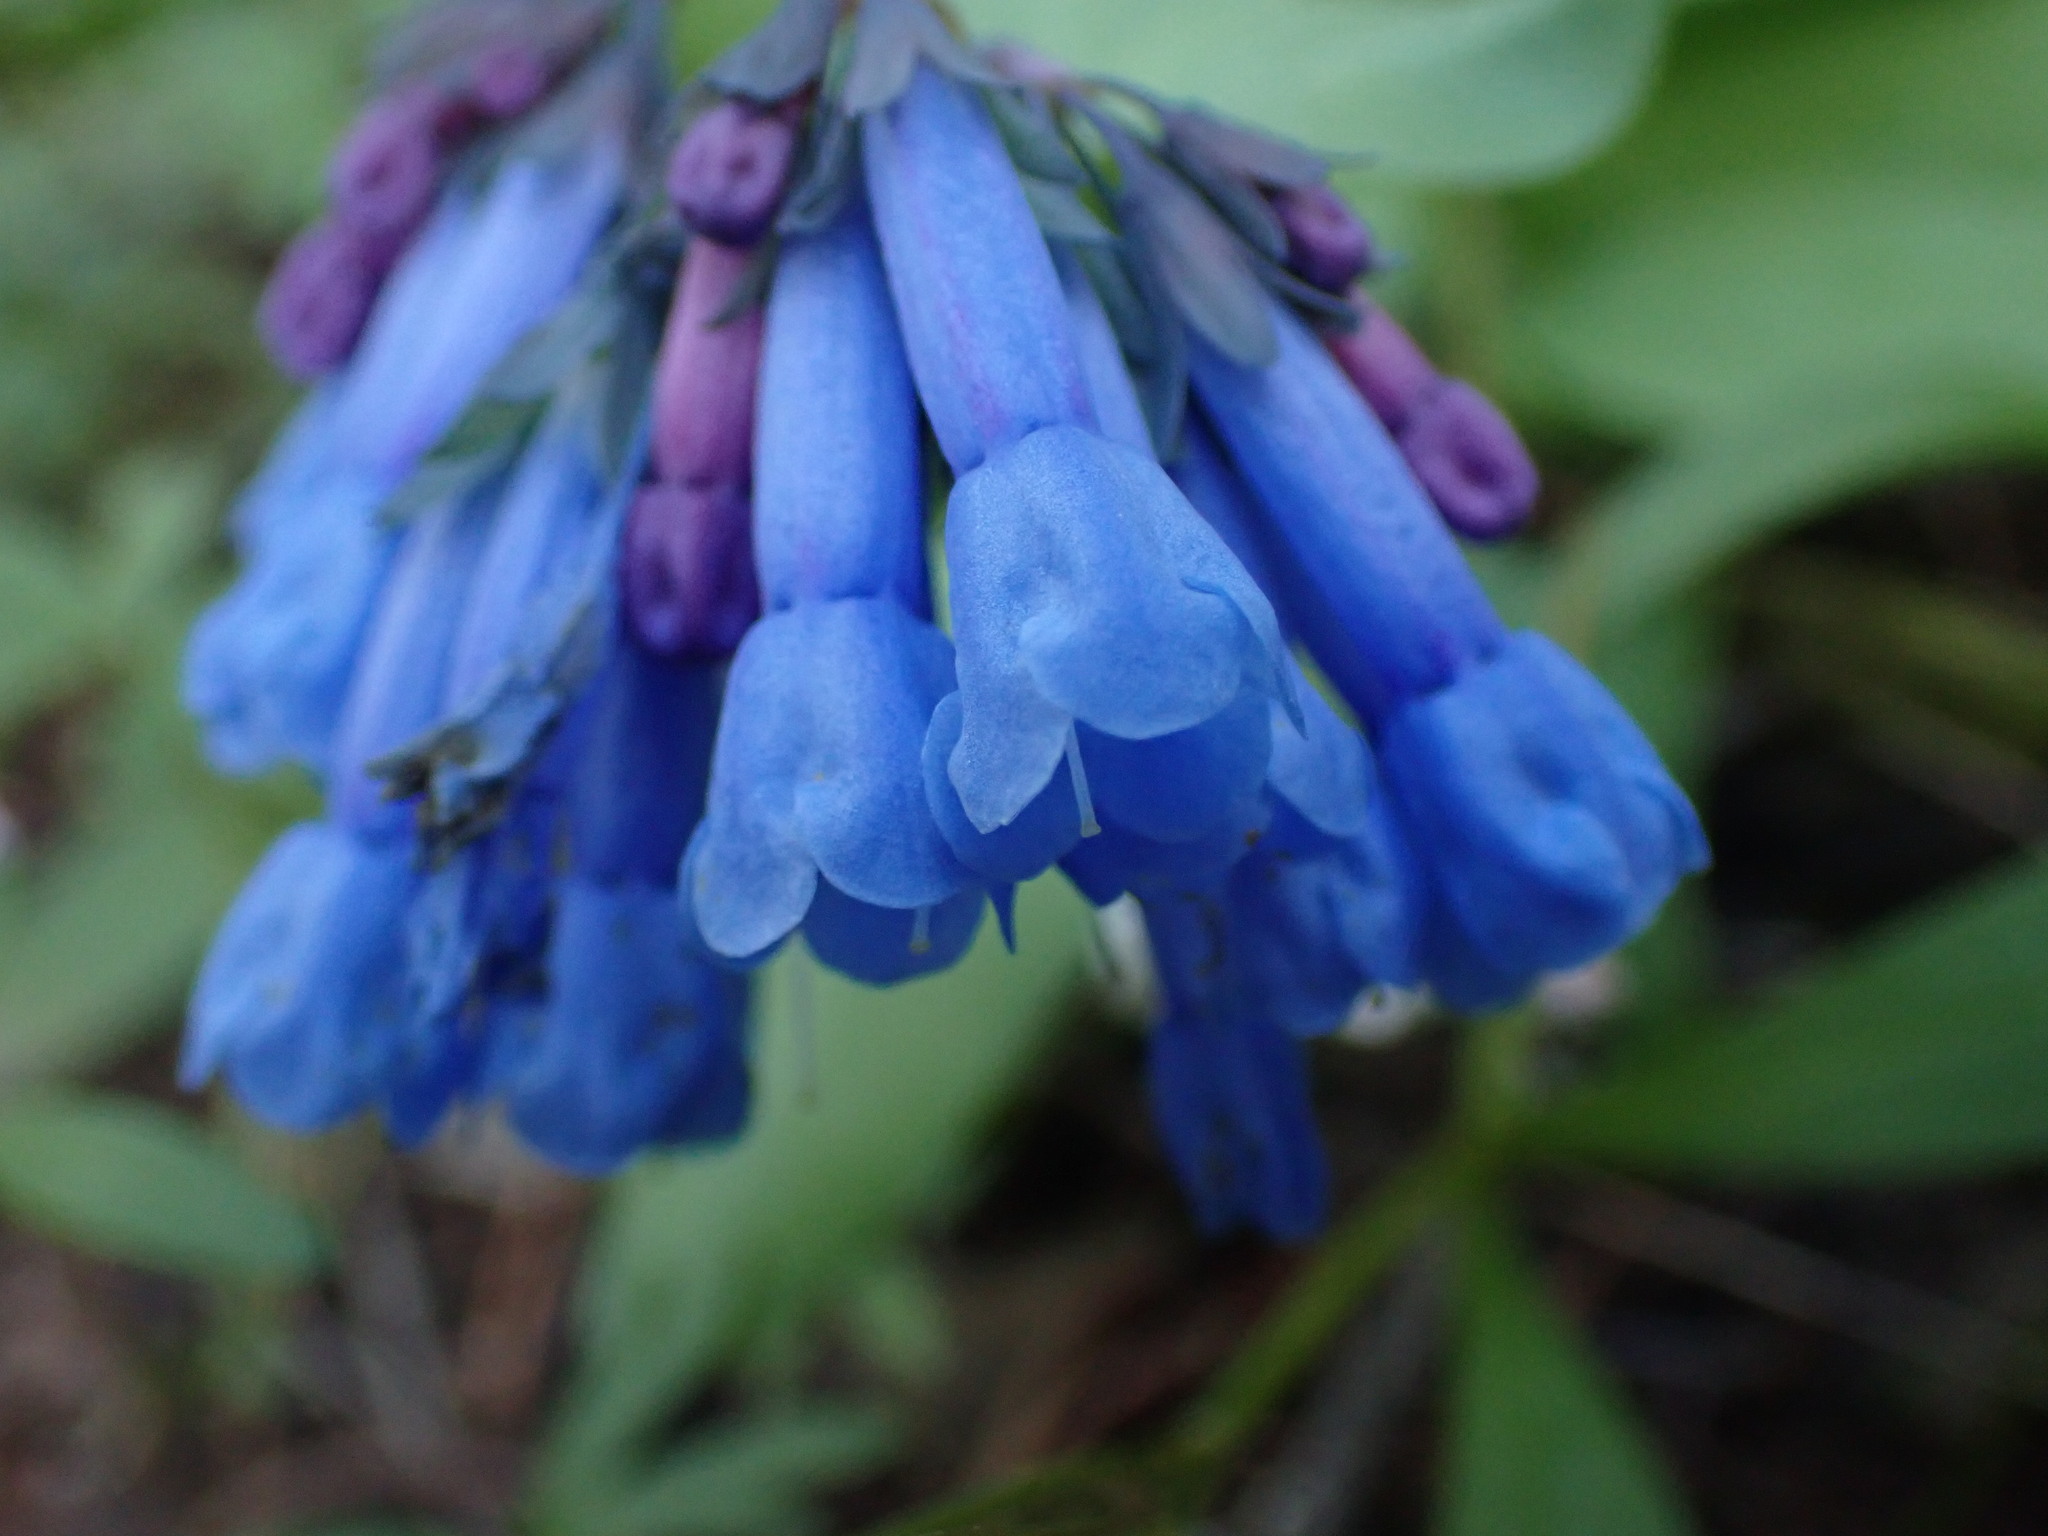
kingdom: Plantae
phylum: Tracheophyta
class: Magnoliopsida
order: Boraginales
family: Boraginaceae
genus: Mertensia
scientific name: Mertensia longiflora
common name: Large-flowered bluebells
